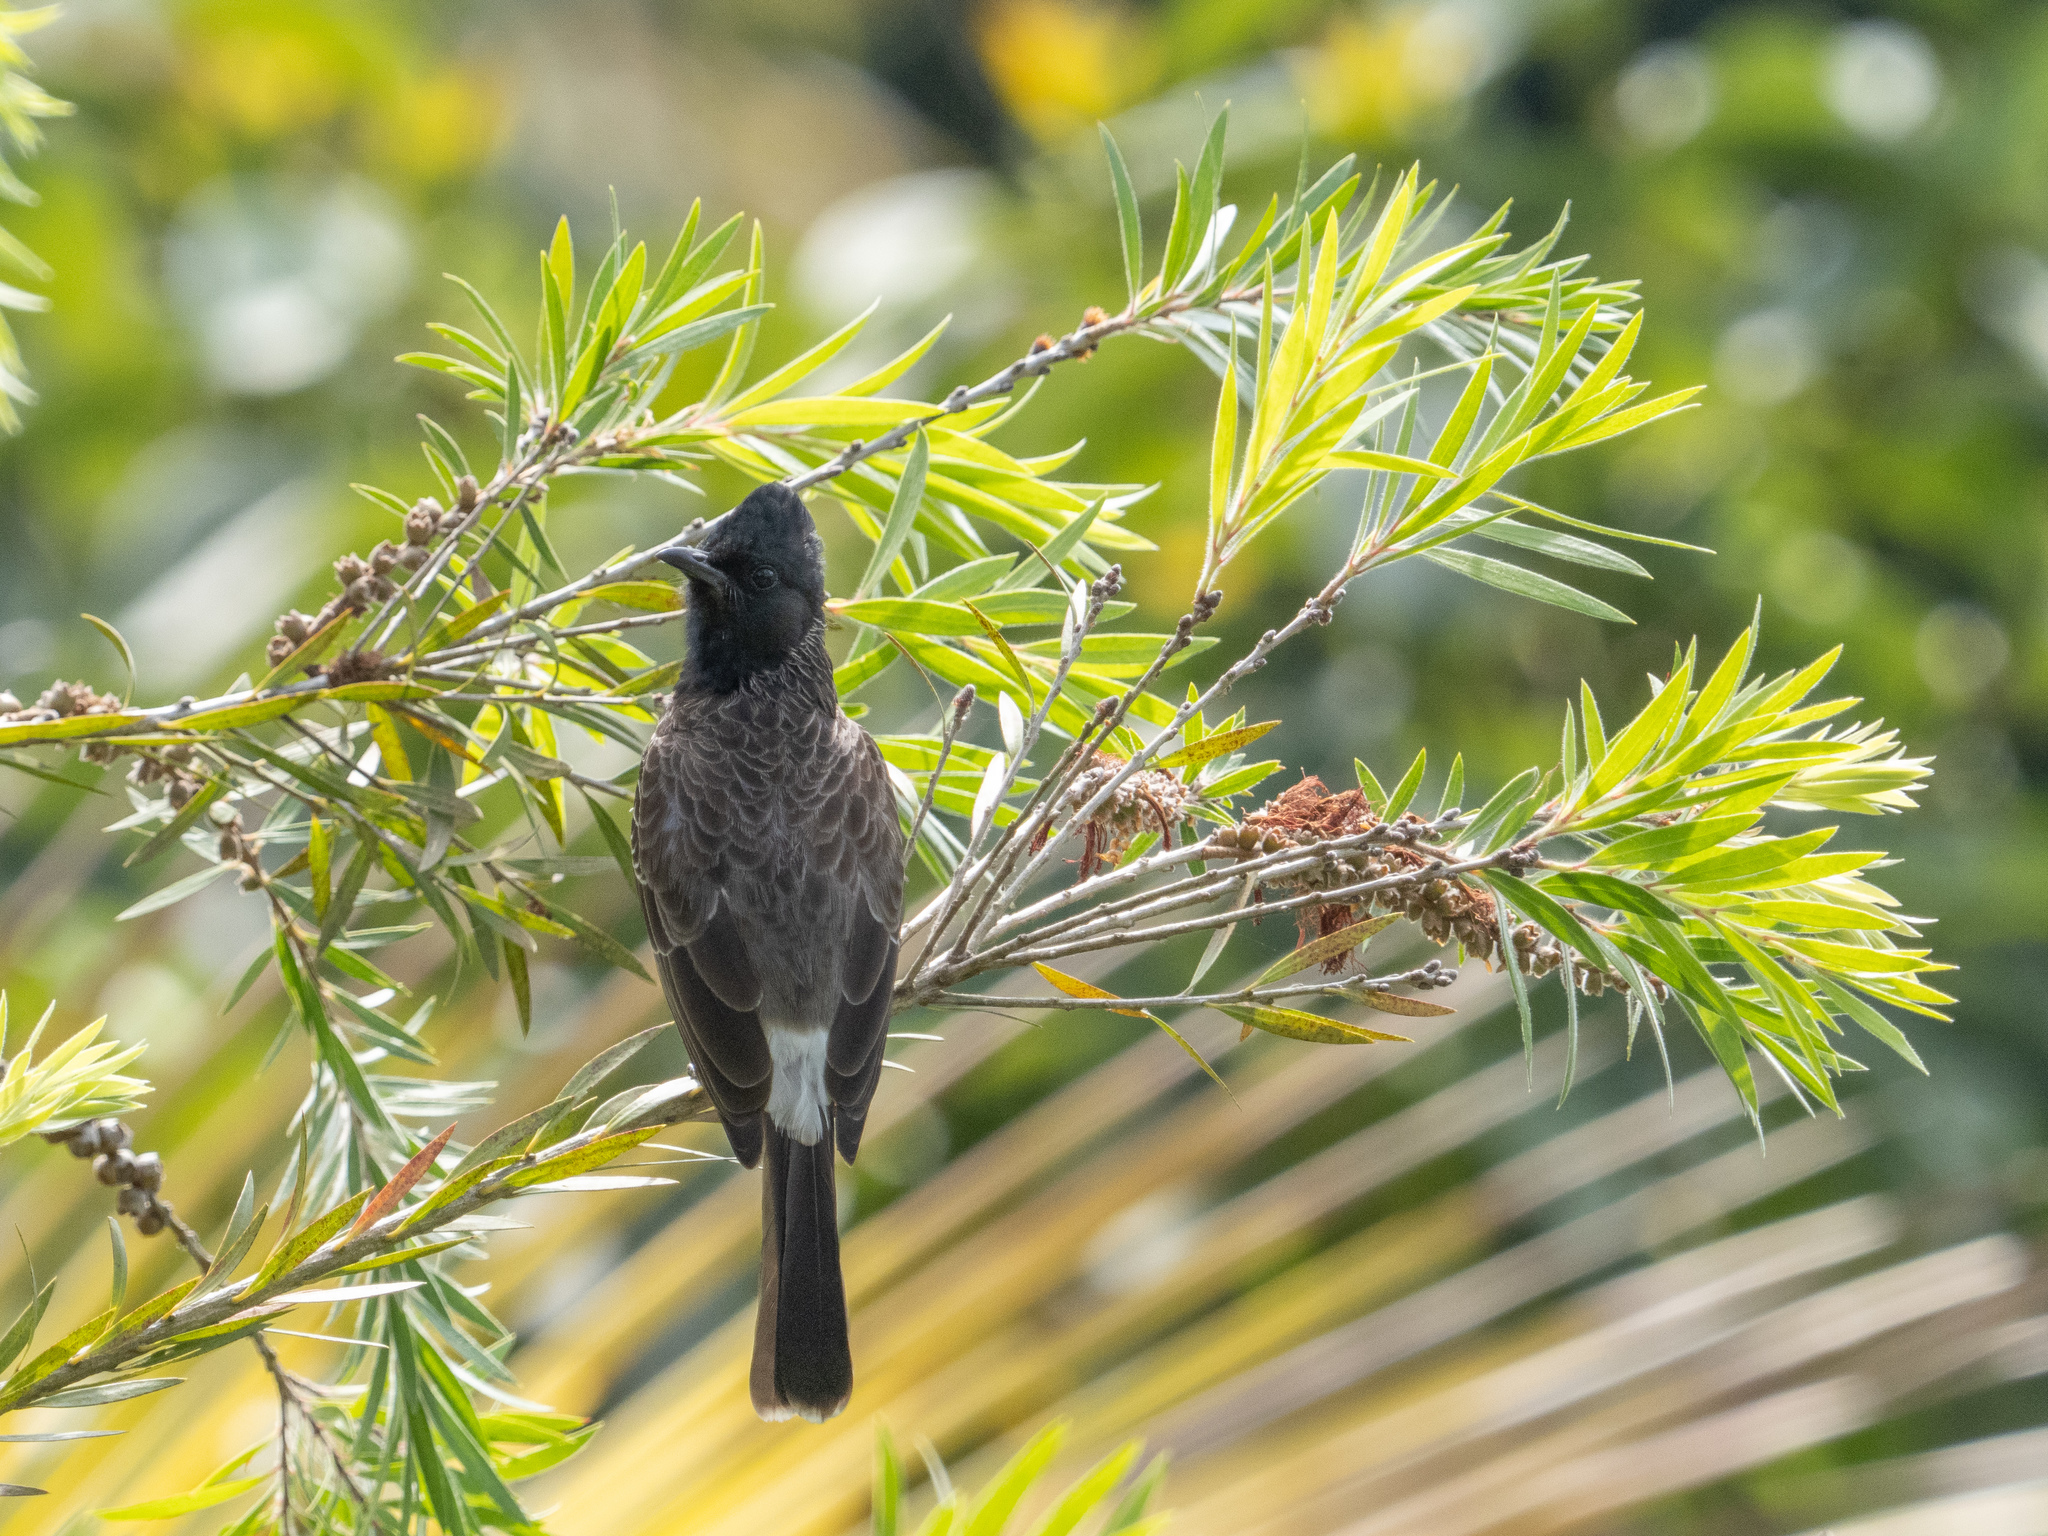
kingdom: Animalia
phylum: Chordata
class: Aves
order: Passeriformes
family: Pycnonotidae
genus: Pycnonotus
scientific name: Pycnonotus cafer
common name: Red-vented bulbul
